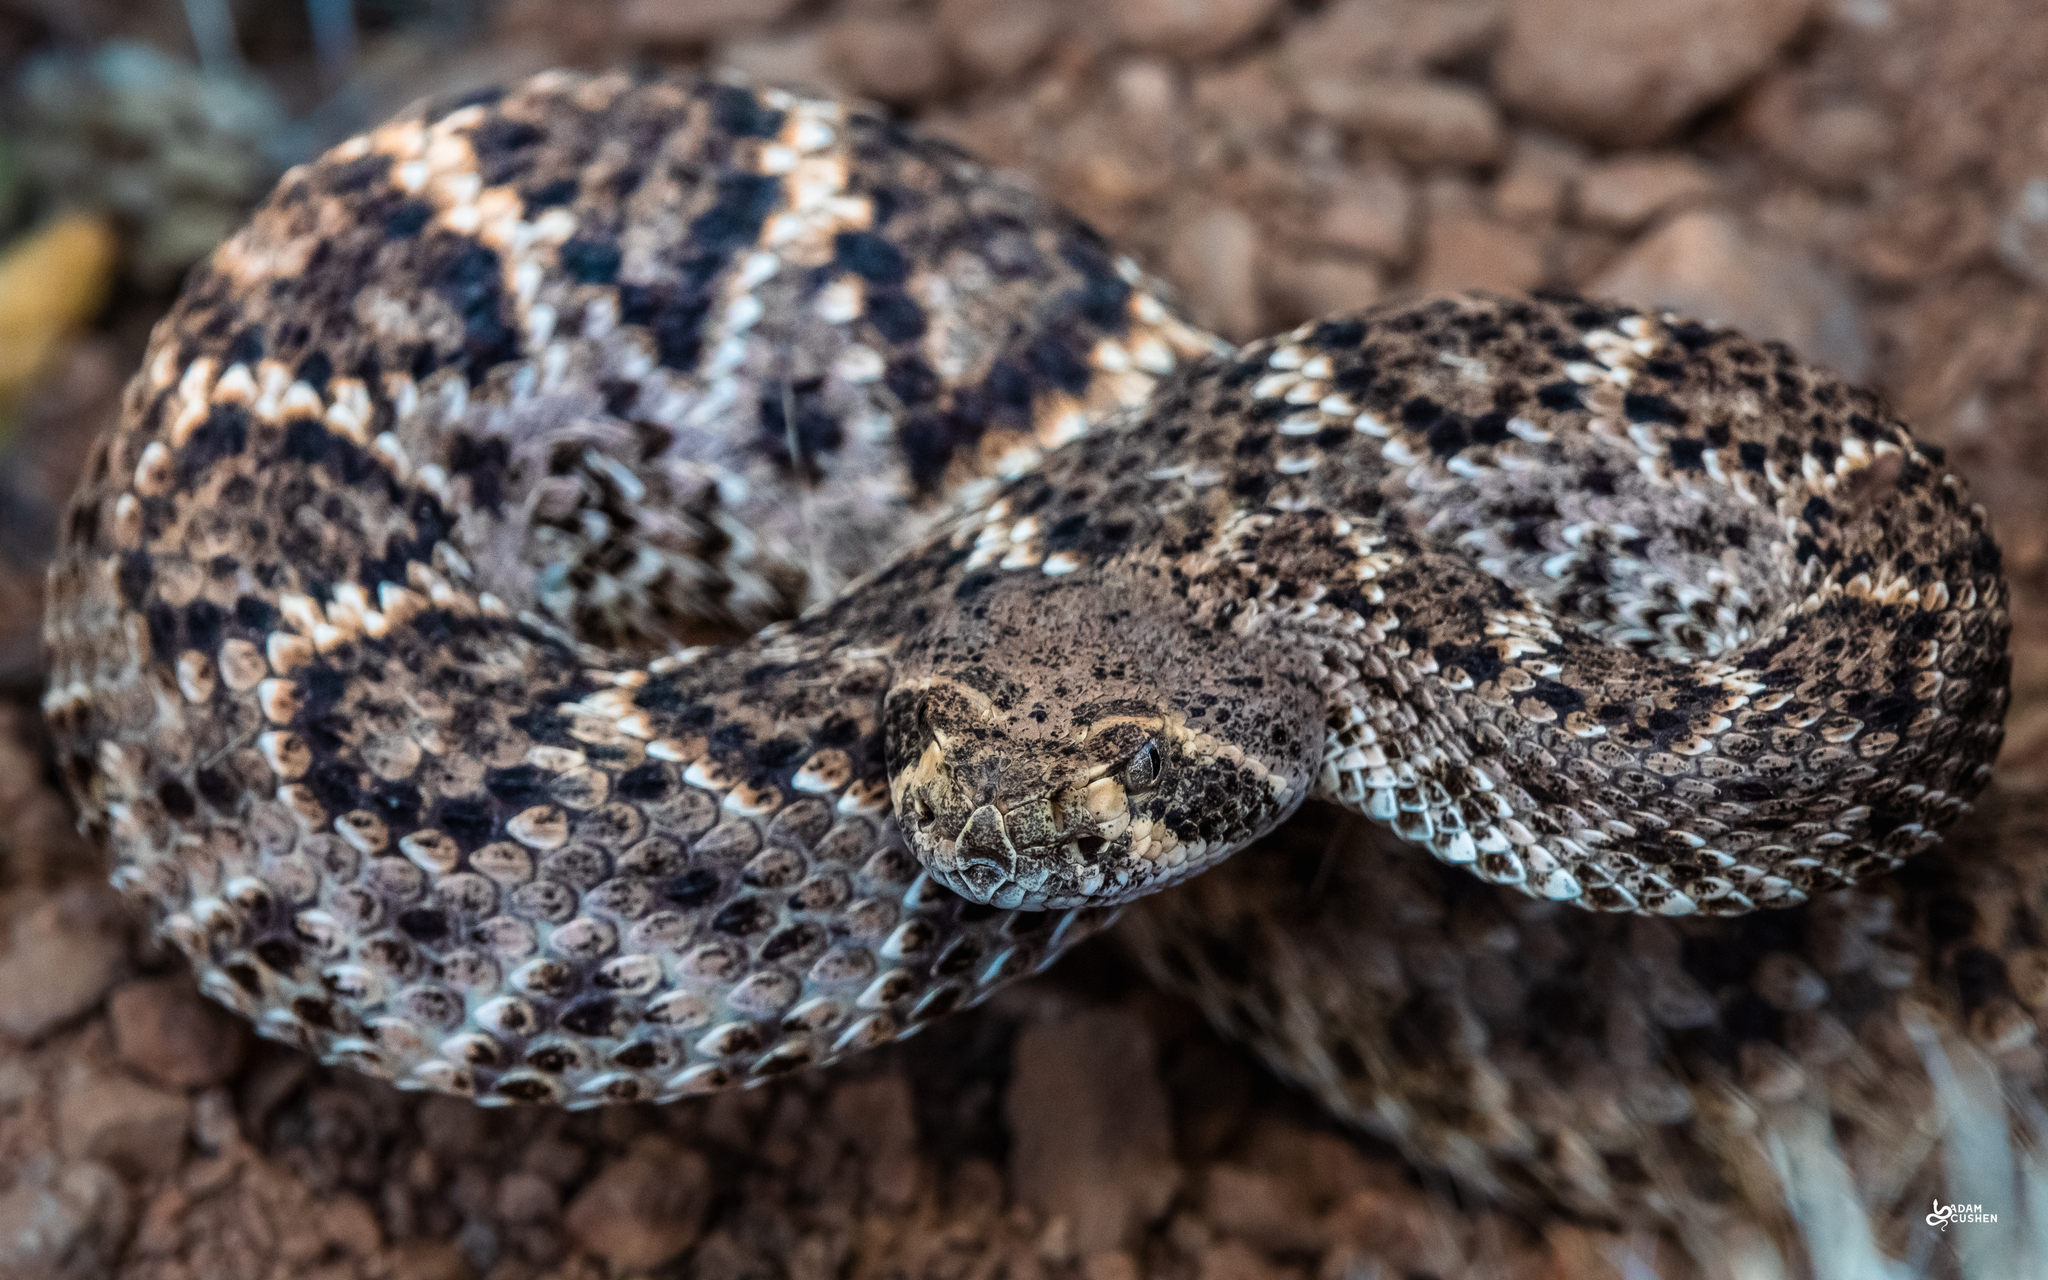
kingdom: Animalia
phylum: Chordata
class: Squamata
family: Viperidae
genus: Crotalus
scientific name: Crotalus atrox
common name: Western diamond-backed rattlesnake
